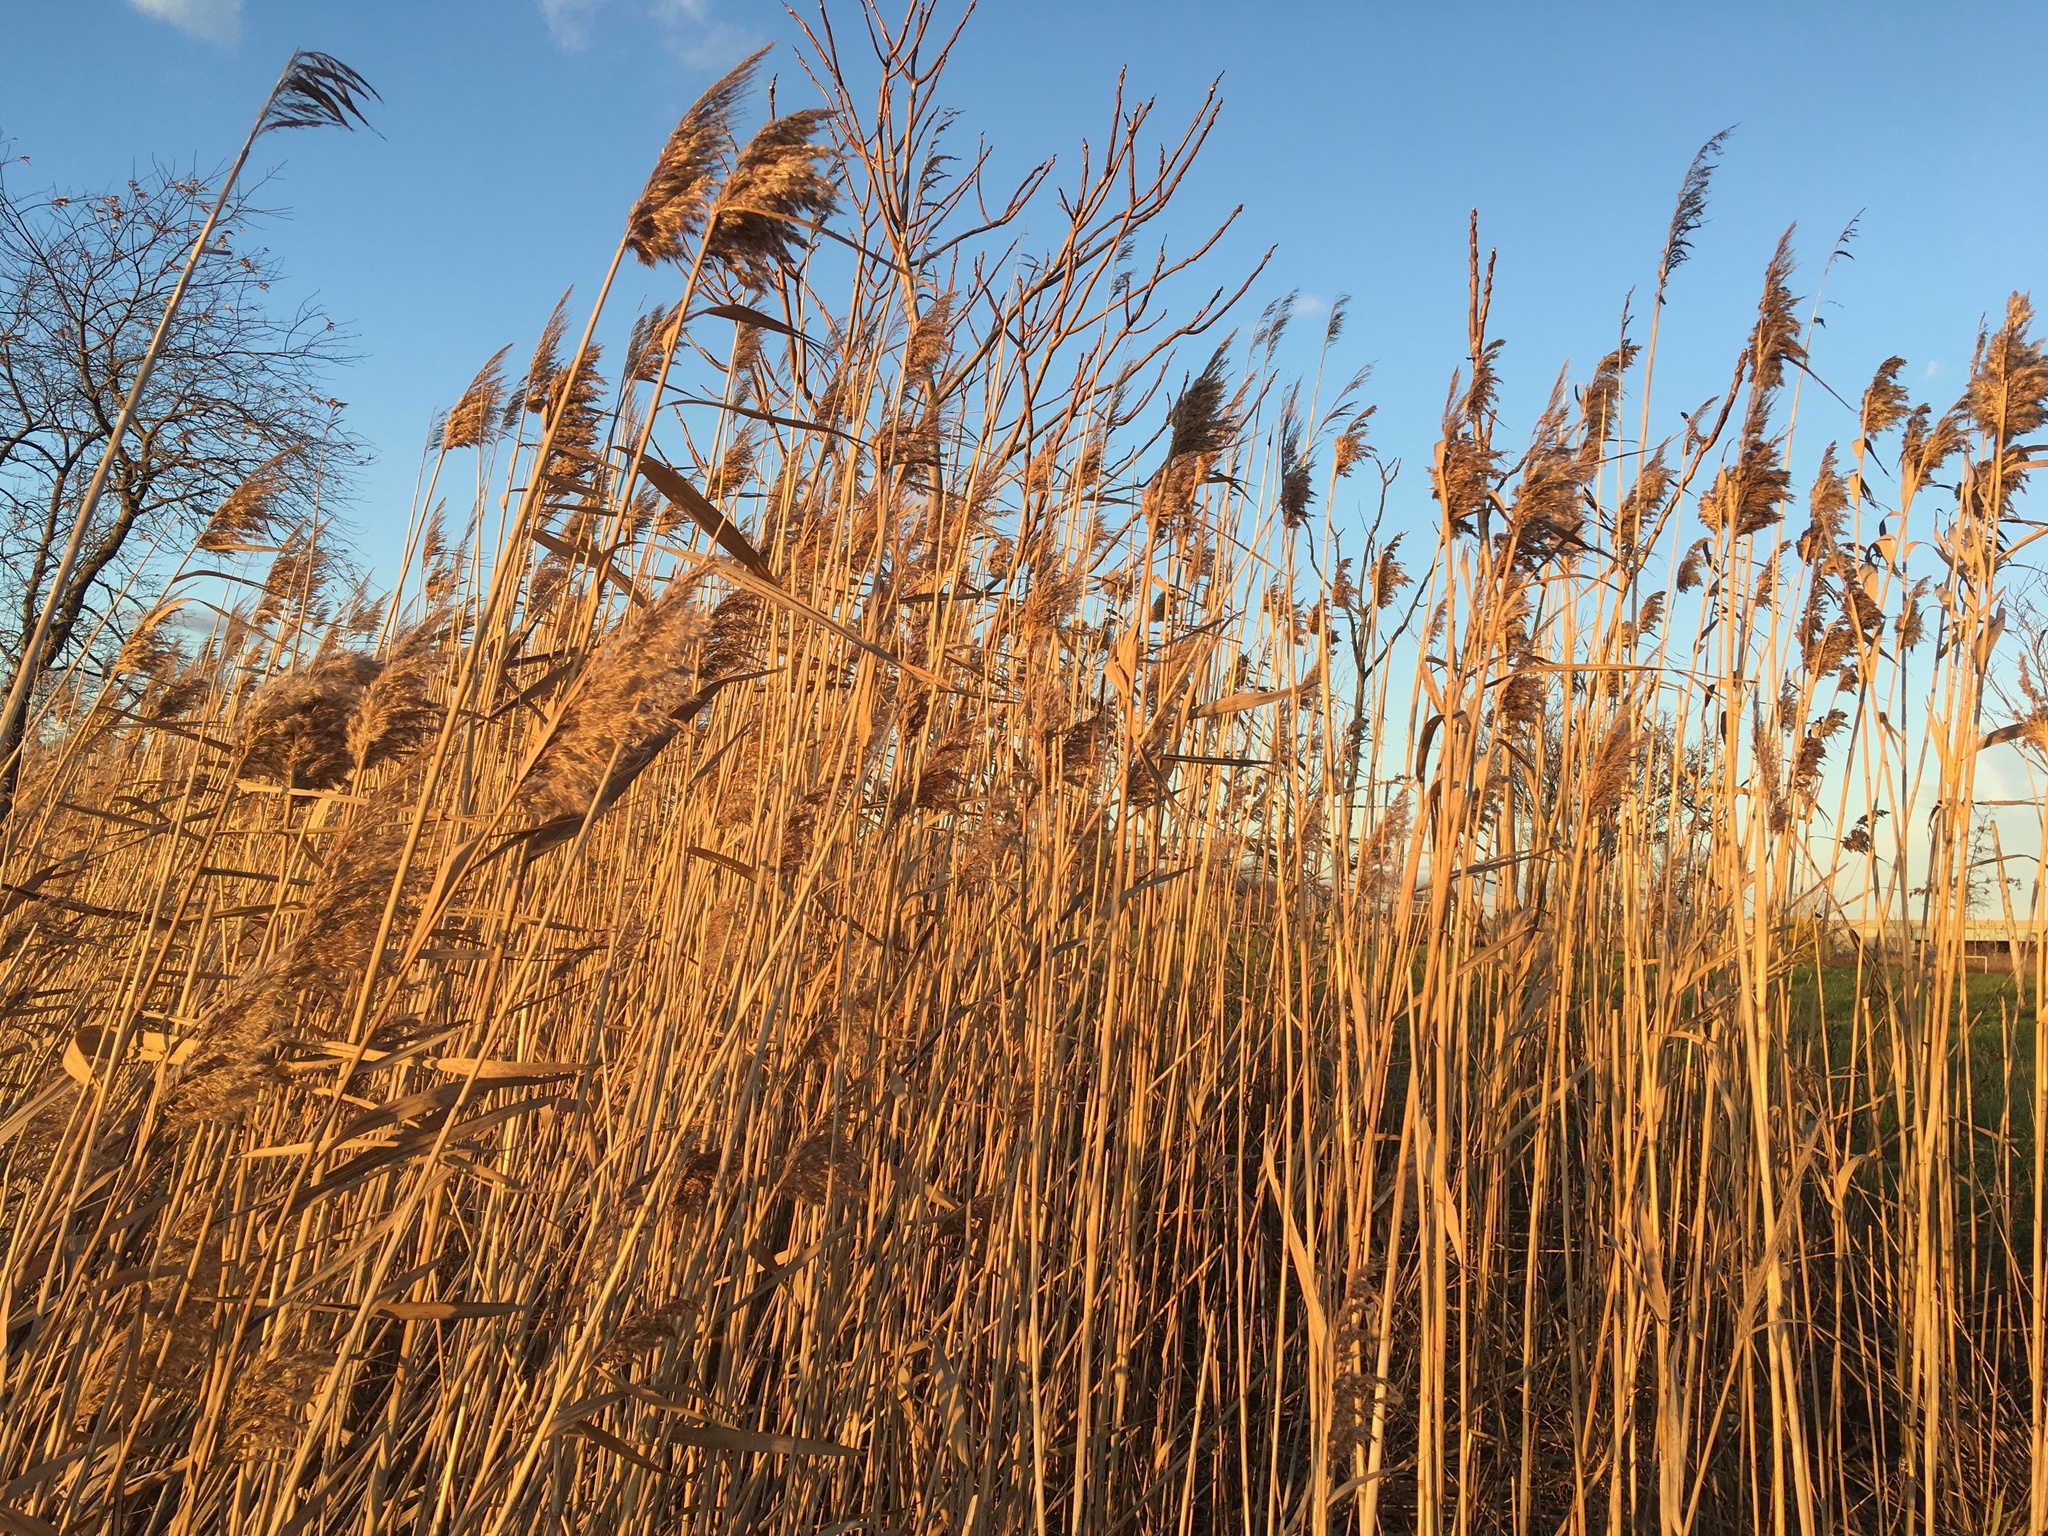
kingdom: Plantae
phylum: Tracheophyta
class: Liliopsida
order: Poales
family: Poaceae
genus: Phragmites
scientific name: Phragmites australis
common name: Common reed
